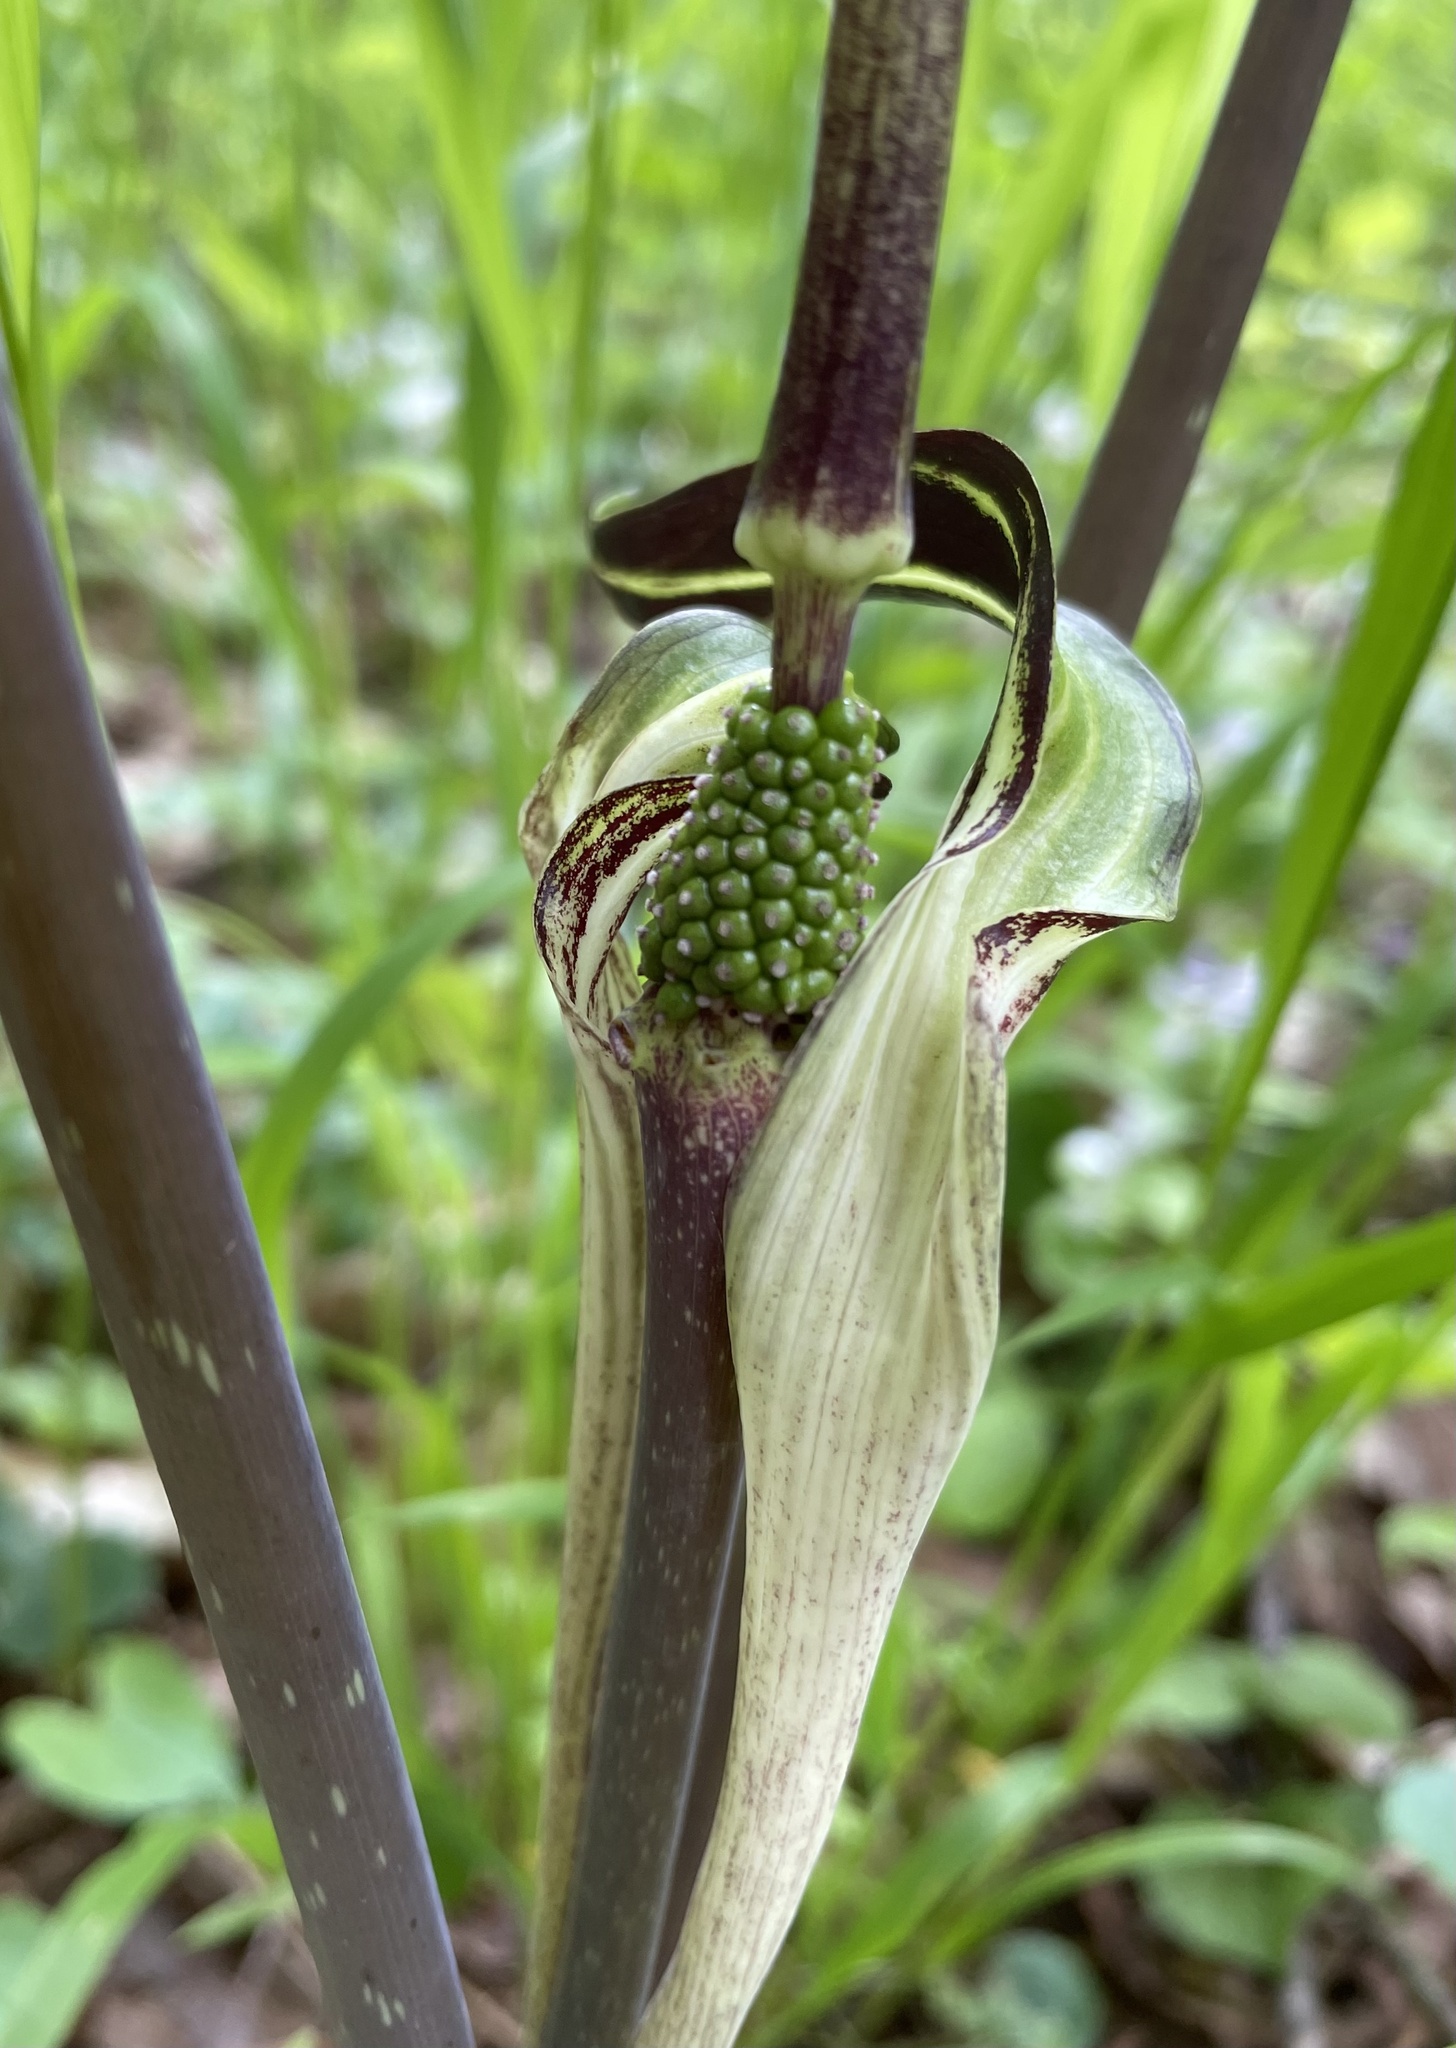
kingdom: Plantae
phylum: Tracheophyta
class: Liliopsida
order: Alismatales
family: Araceae
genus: Arisaema
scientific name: Arisaema triphyllum
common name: Jack-in-the-pulpit
